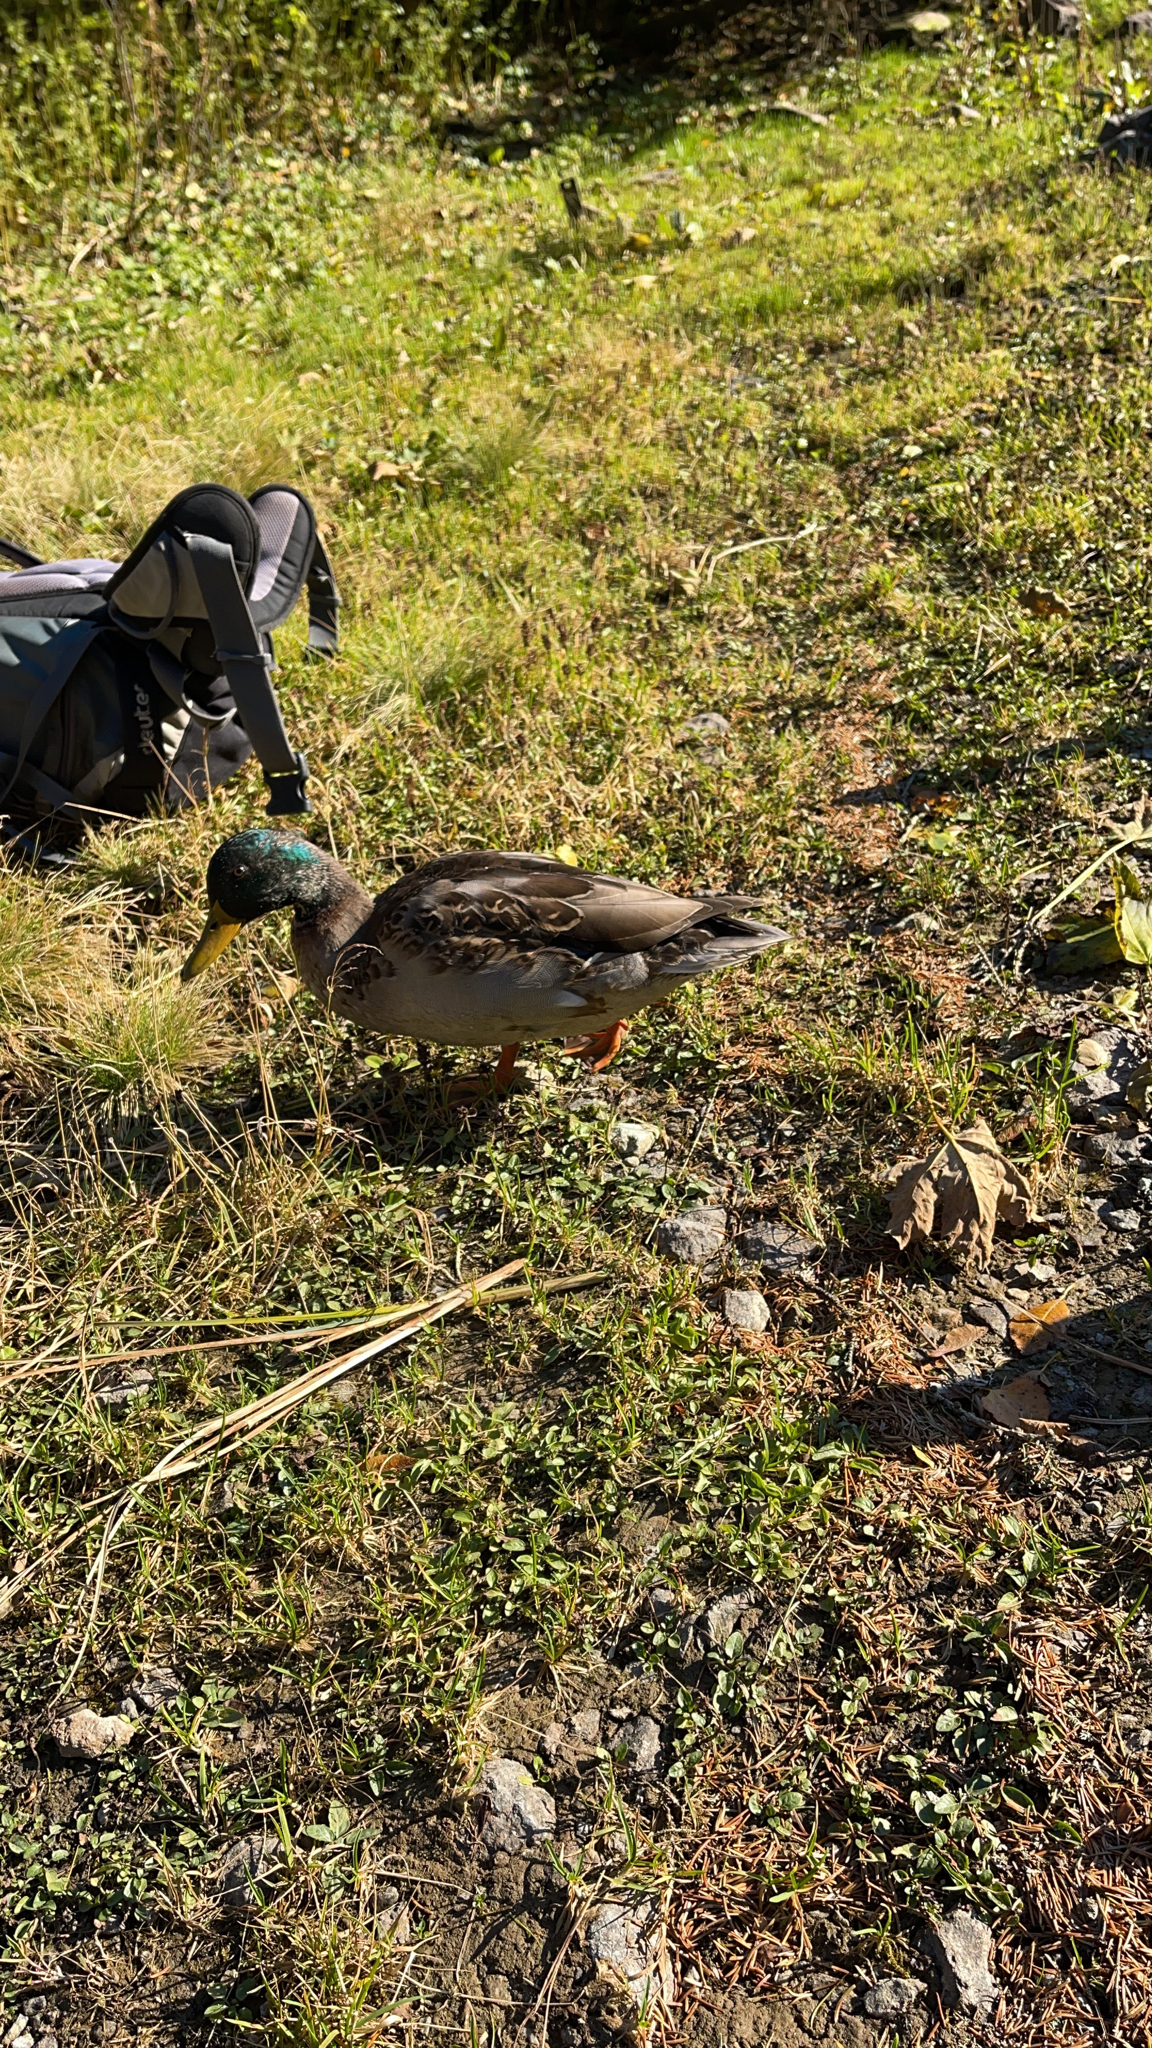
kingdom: Animalia
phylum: Chordata
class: Aves
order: Anseriformes
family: Anatidae
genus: Anas
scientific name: Anas platyrhynchos
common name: Mallard
